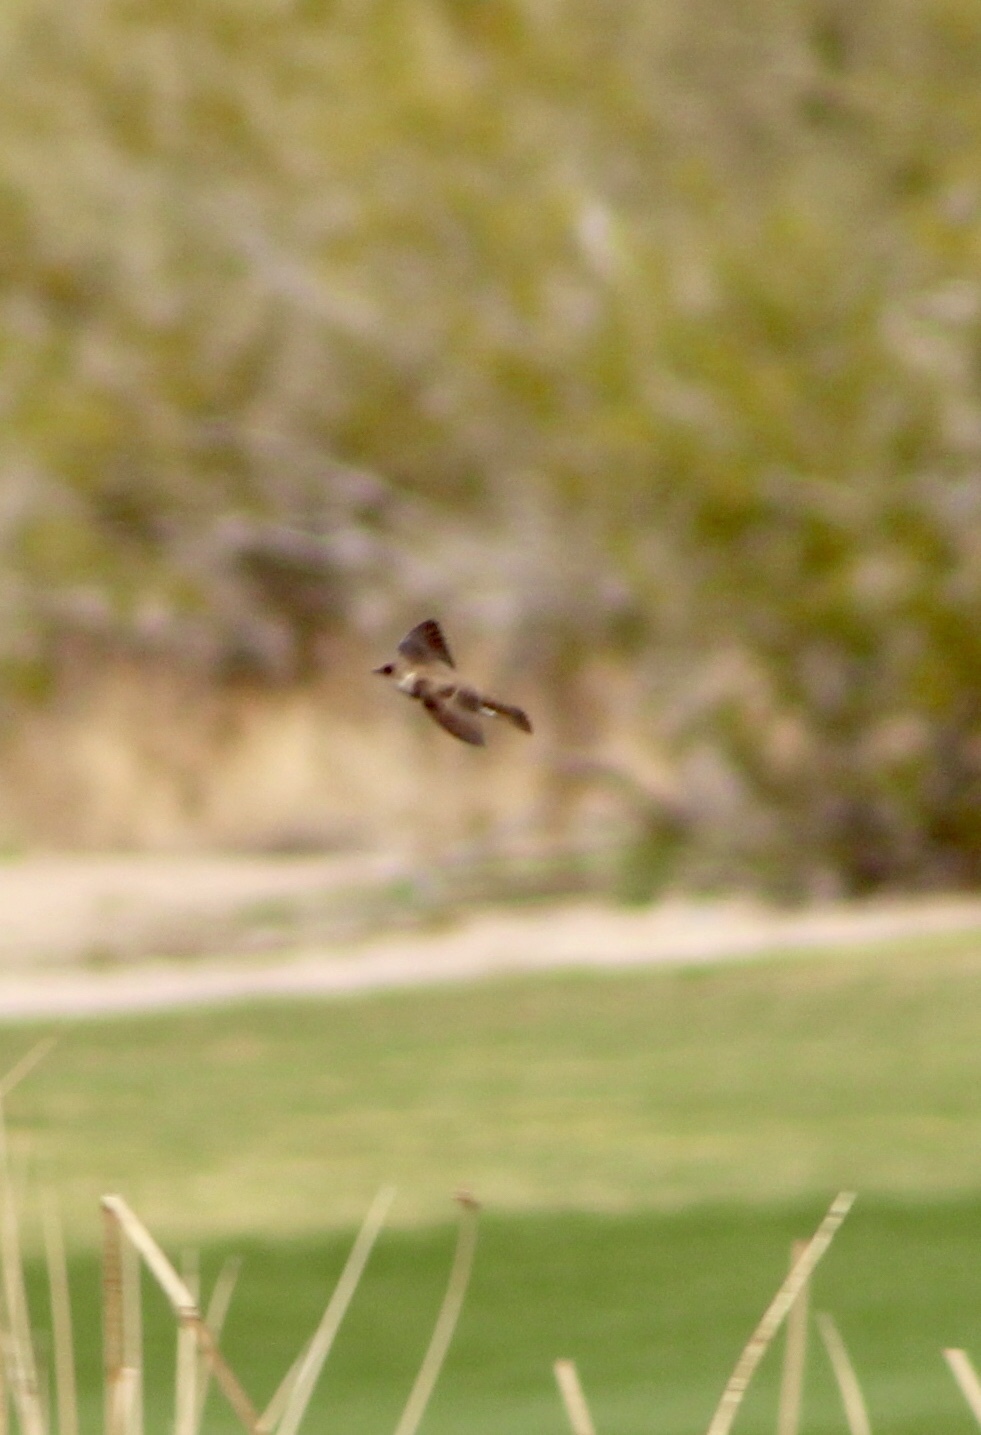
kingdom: Animalia
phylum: Chordata
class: Aves
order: Passeriformes
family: Hirundinidae
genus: Stelgidopteryx
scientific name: Stelgidopteryx serripennis
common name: Northern rough-winged swallow
